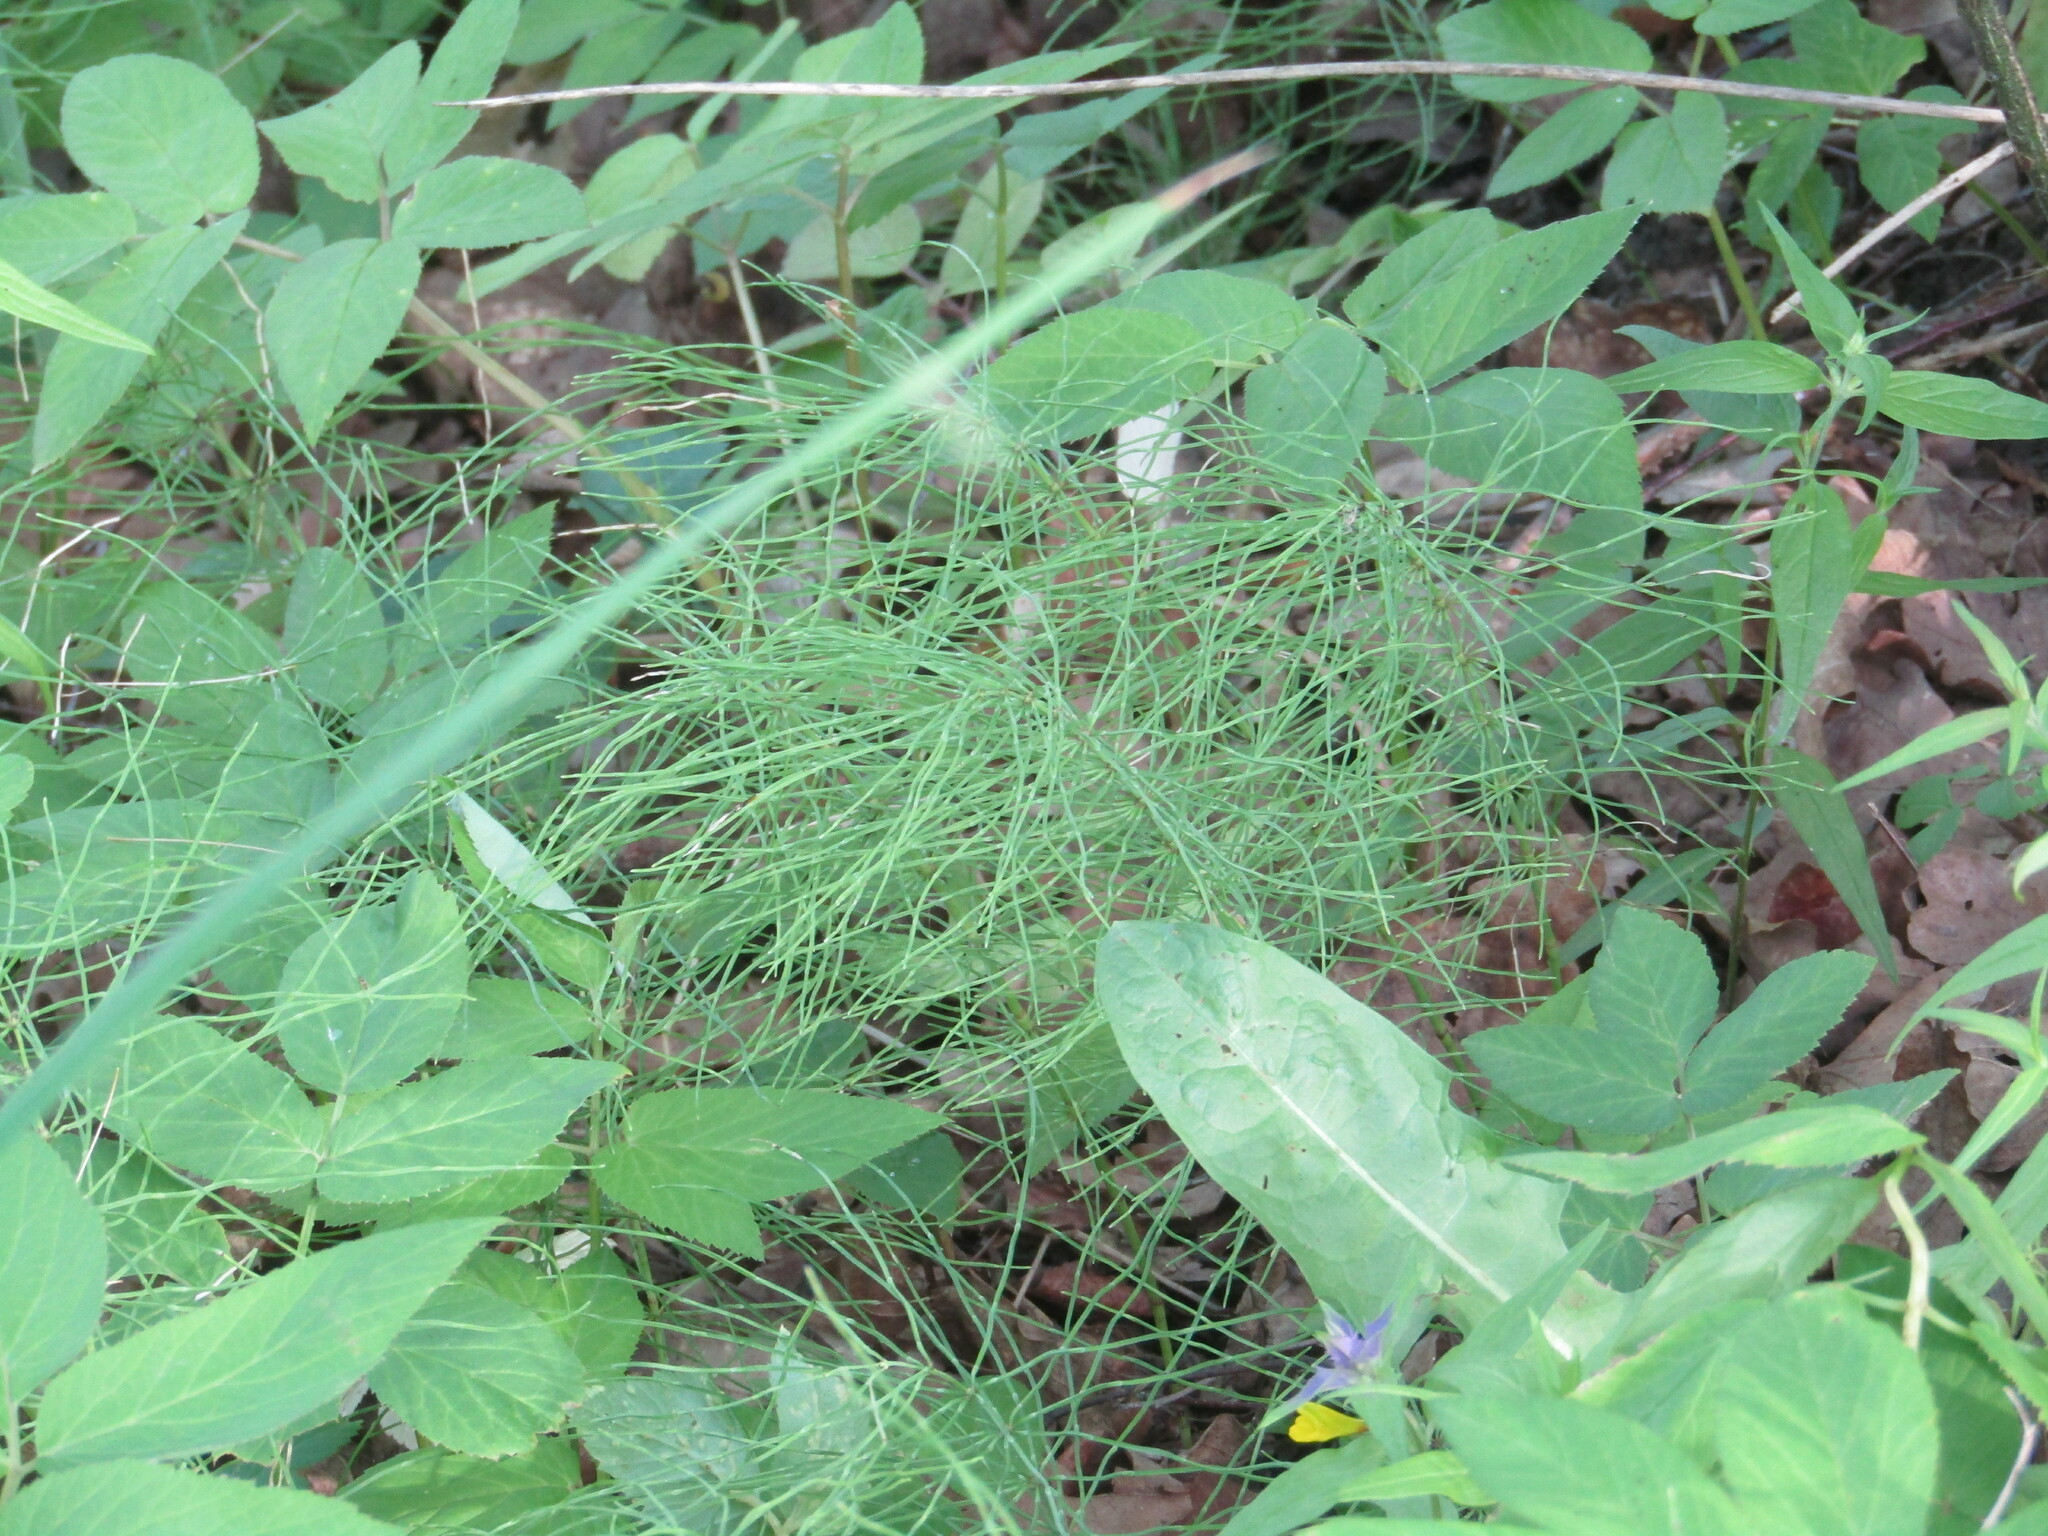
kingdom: Plantae
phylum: Tracheophyta
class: Polypodiopsida
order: Equisetales
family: Equisetaceae
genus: Equisetum
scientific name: Equisetum pratense
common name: Meadow horsetail
